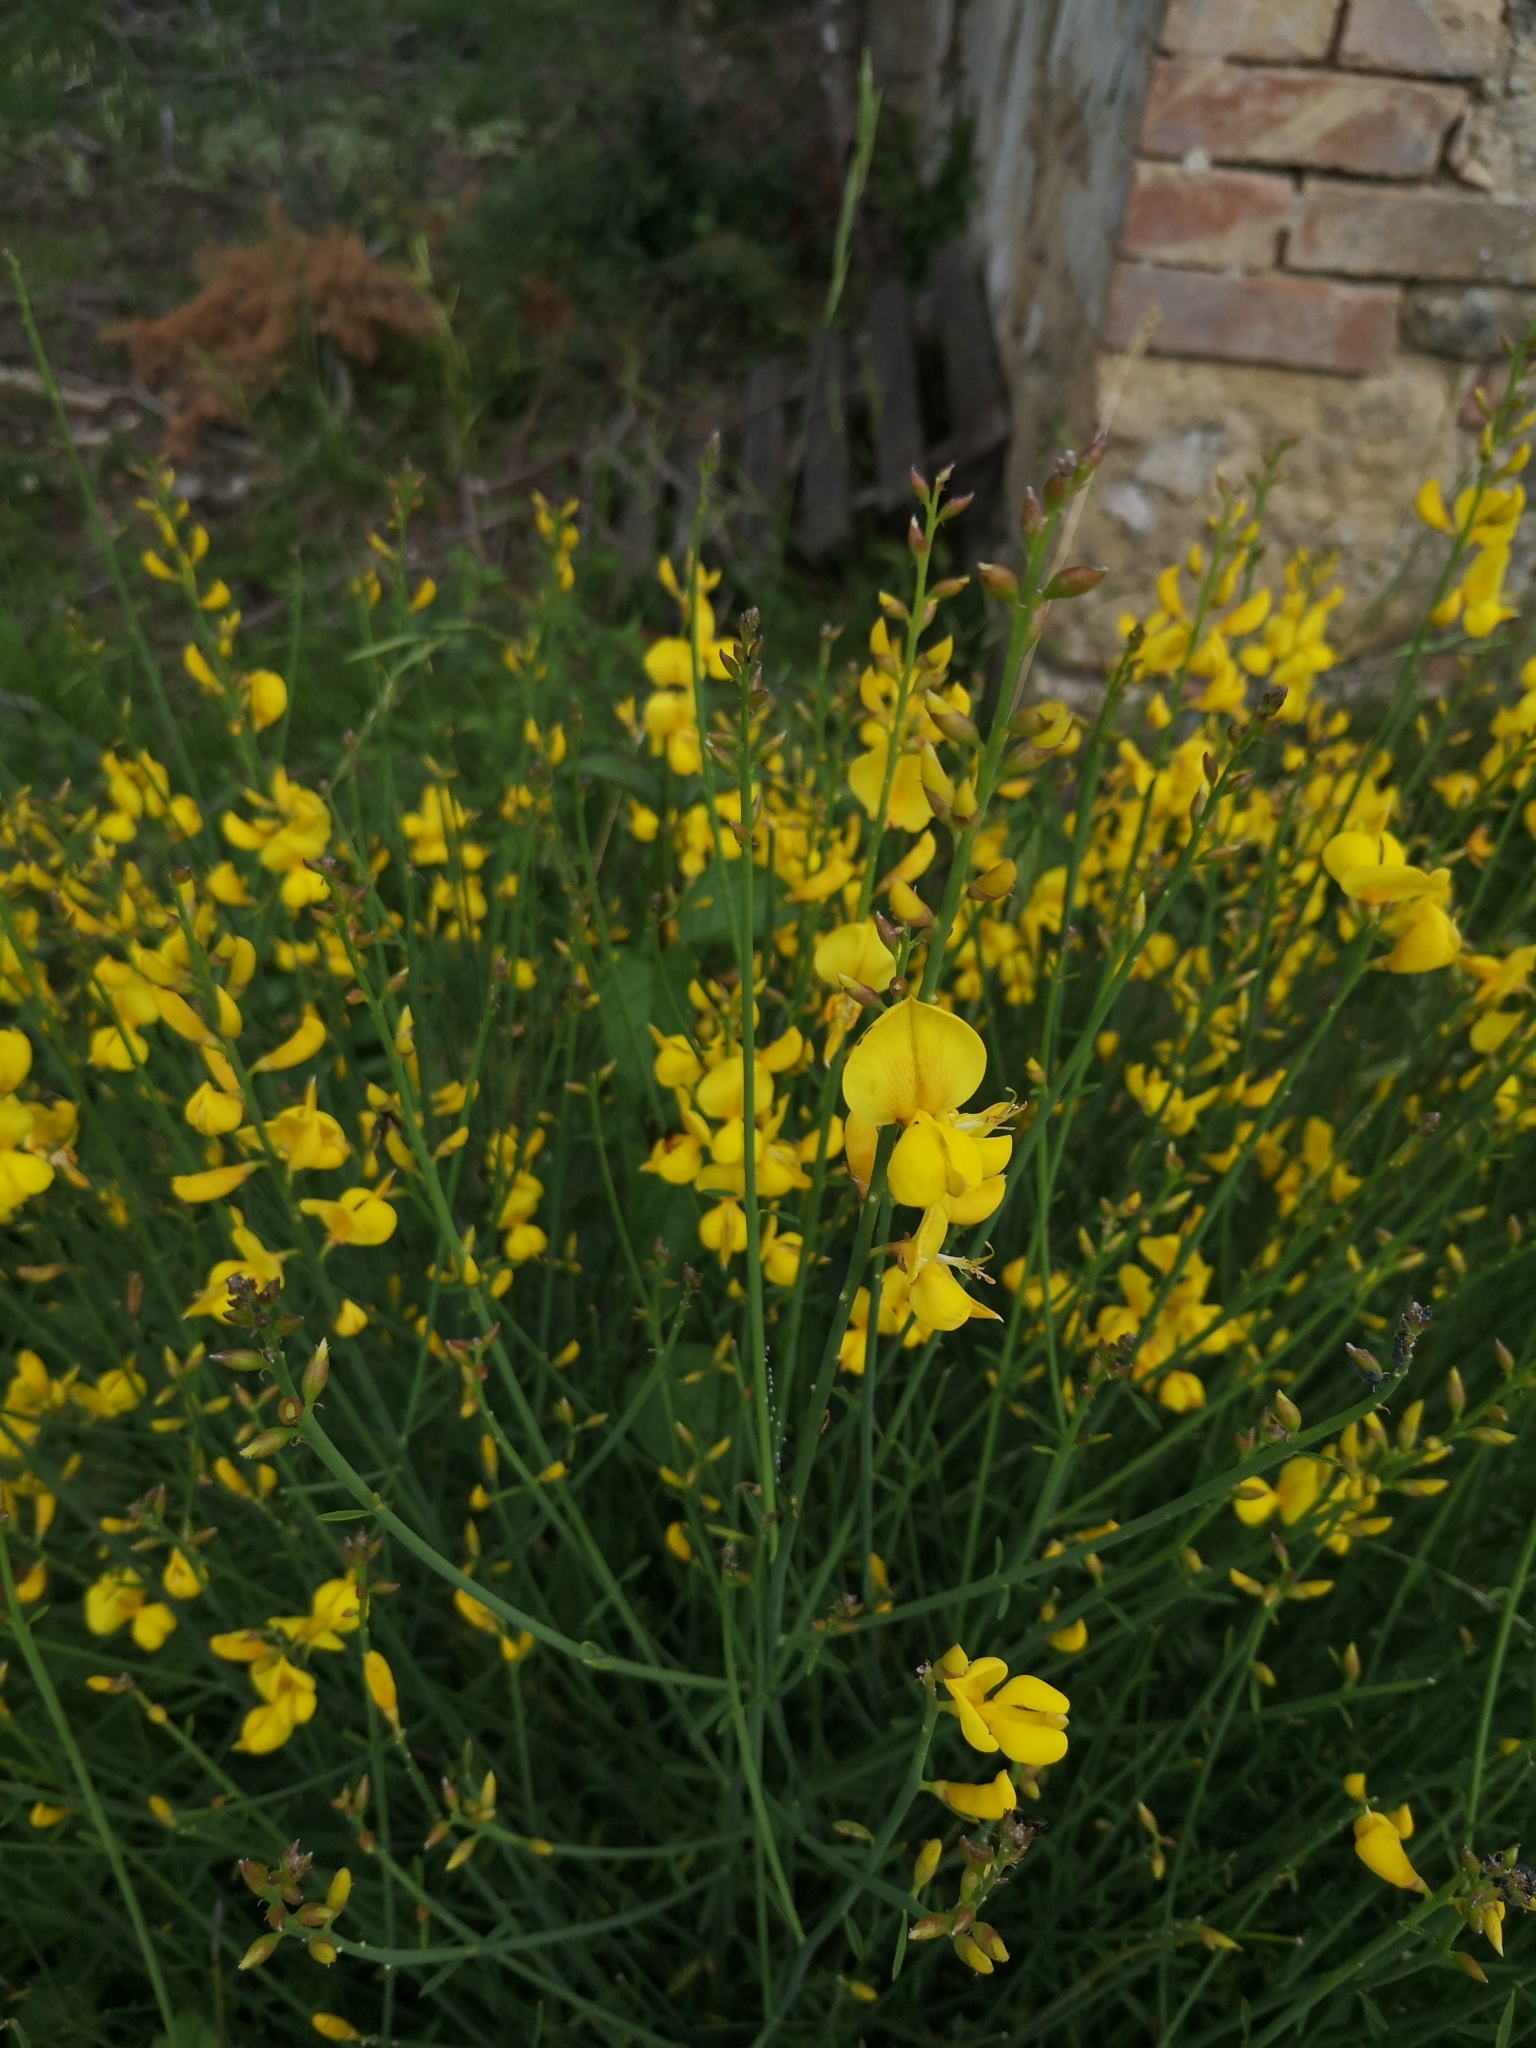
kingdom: Plantae
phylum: Tracheophyta
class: Magnoliopsida
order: Fabales
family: Fabaceae
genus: Spartium
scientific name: Spartium junceum
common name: Spanish broom
